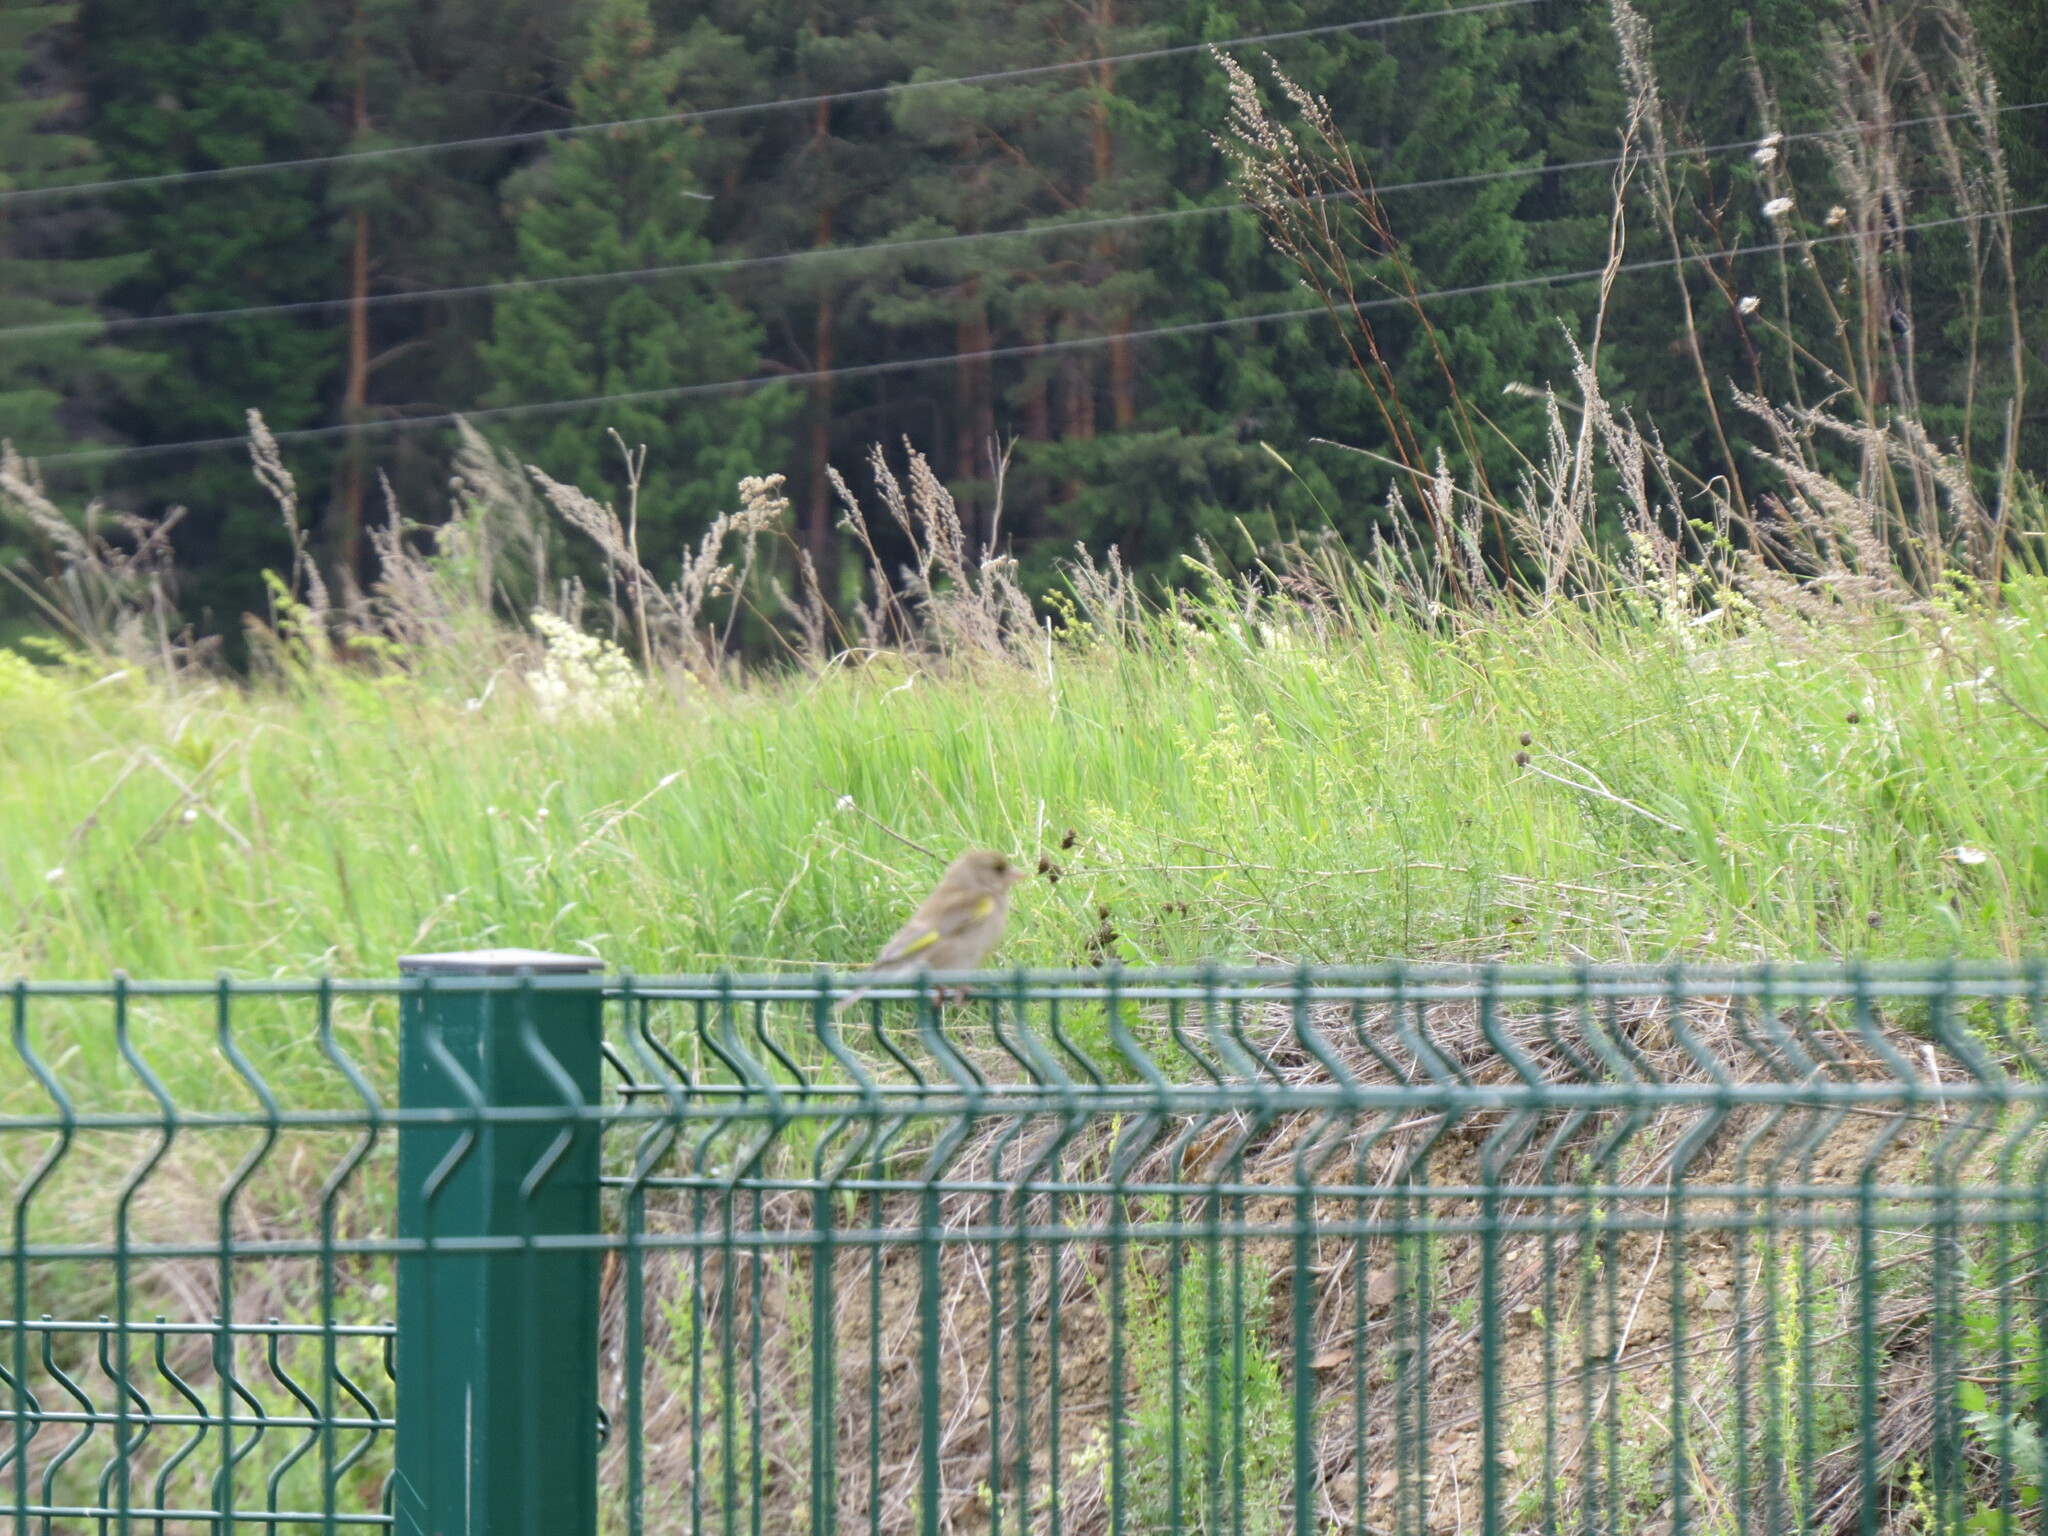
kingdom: Plantae
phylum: Tracheophyta
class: Liliopsida
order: Poales
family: Poaceae
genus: Chloris
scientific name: Chloris chloris
